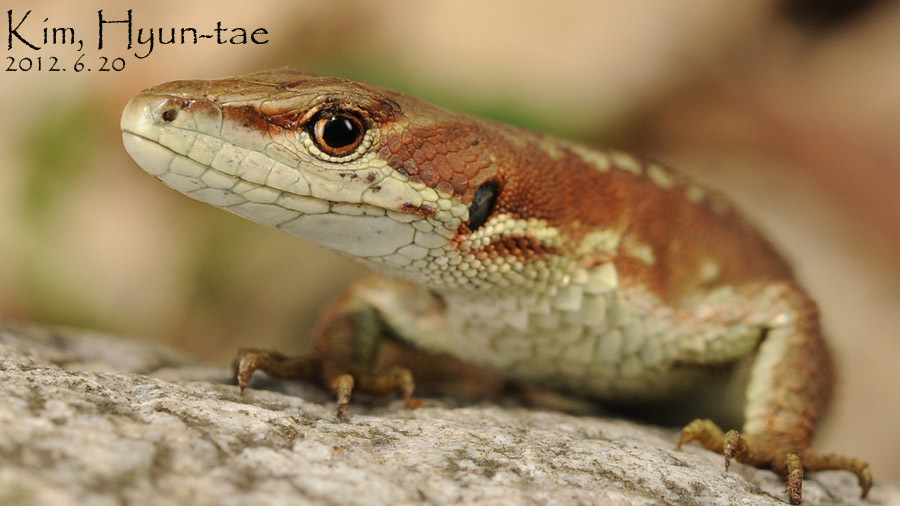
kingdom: Animalia
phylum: Chordata
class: Squamata
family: Lacertidae
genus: Takydromus
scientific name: Takydromus amurensis
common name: Amur grass lizard
